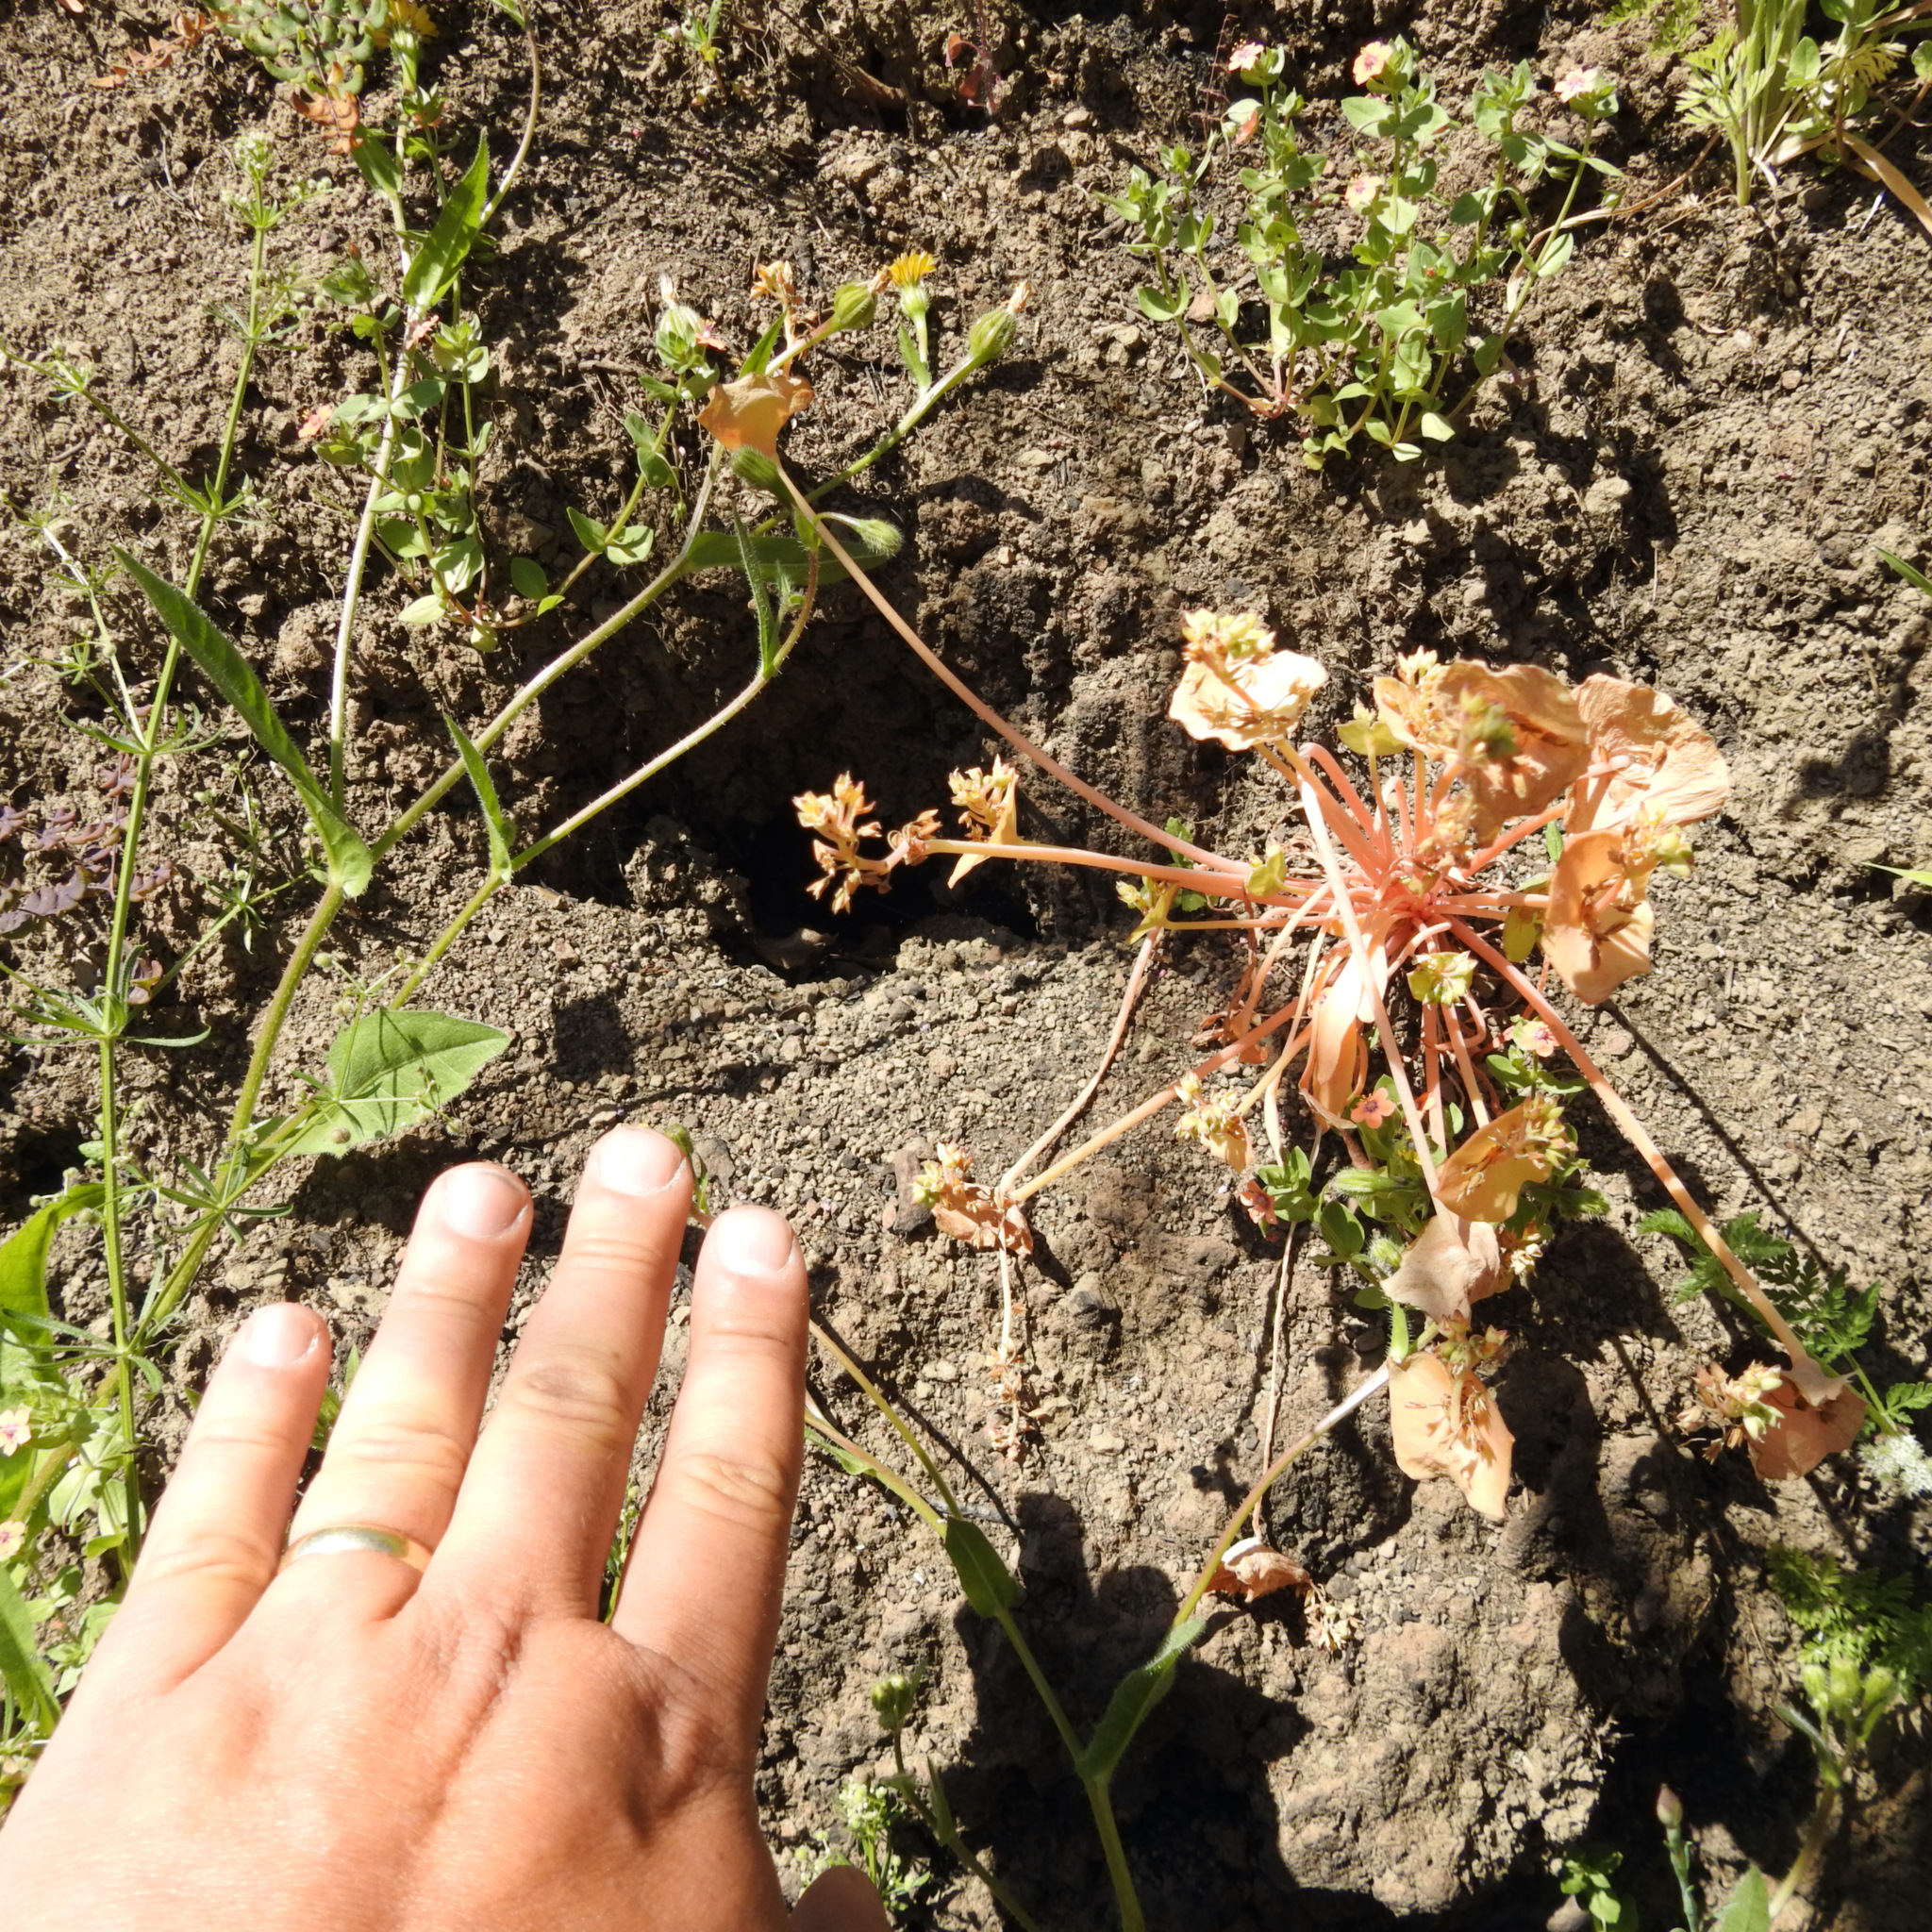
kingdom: Plantae
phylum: Tracheophyta
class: Magnoliopsida
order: Asterales
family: Asteraceae
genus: Hedypnois
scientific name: Hedypnois rhagadioloides
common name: Cretan weed
